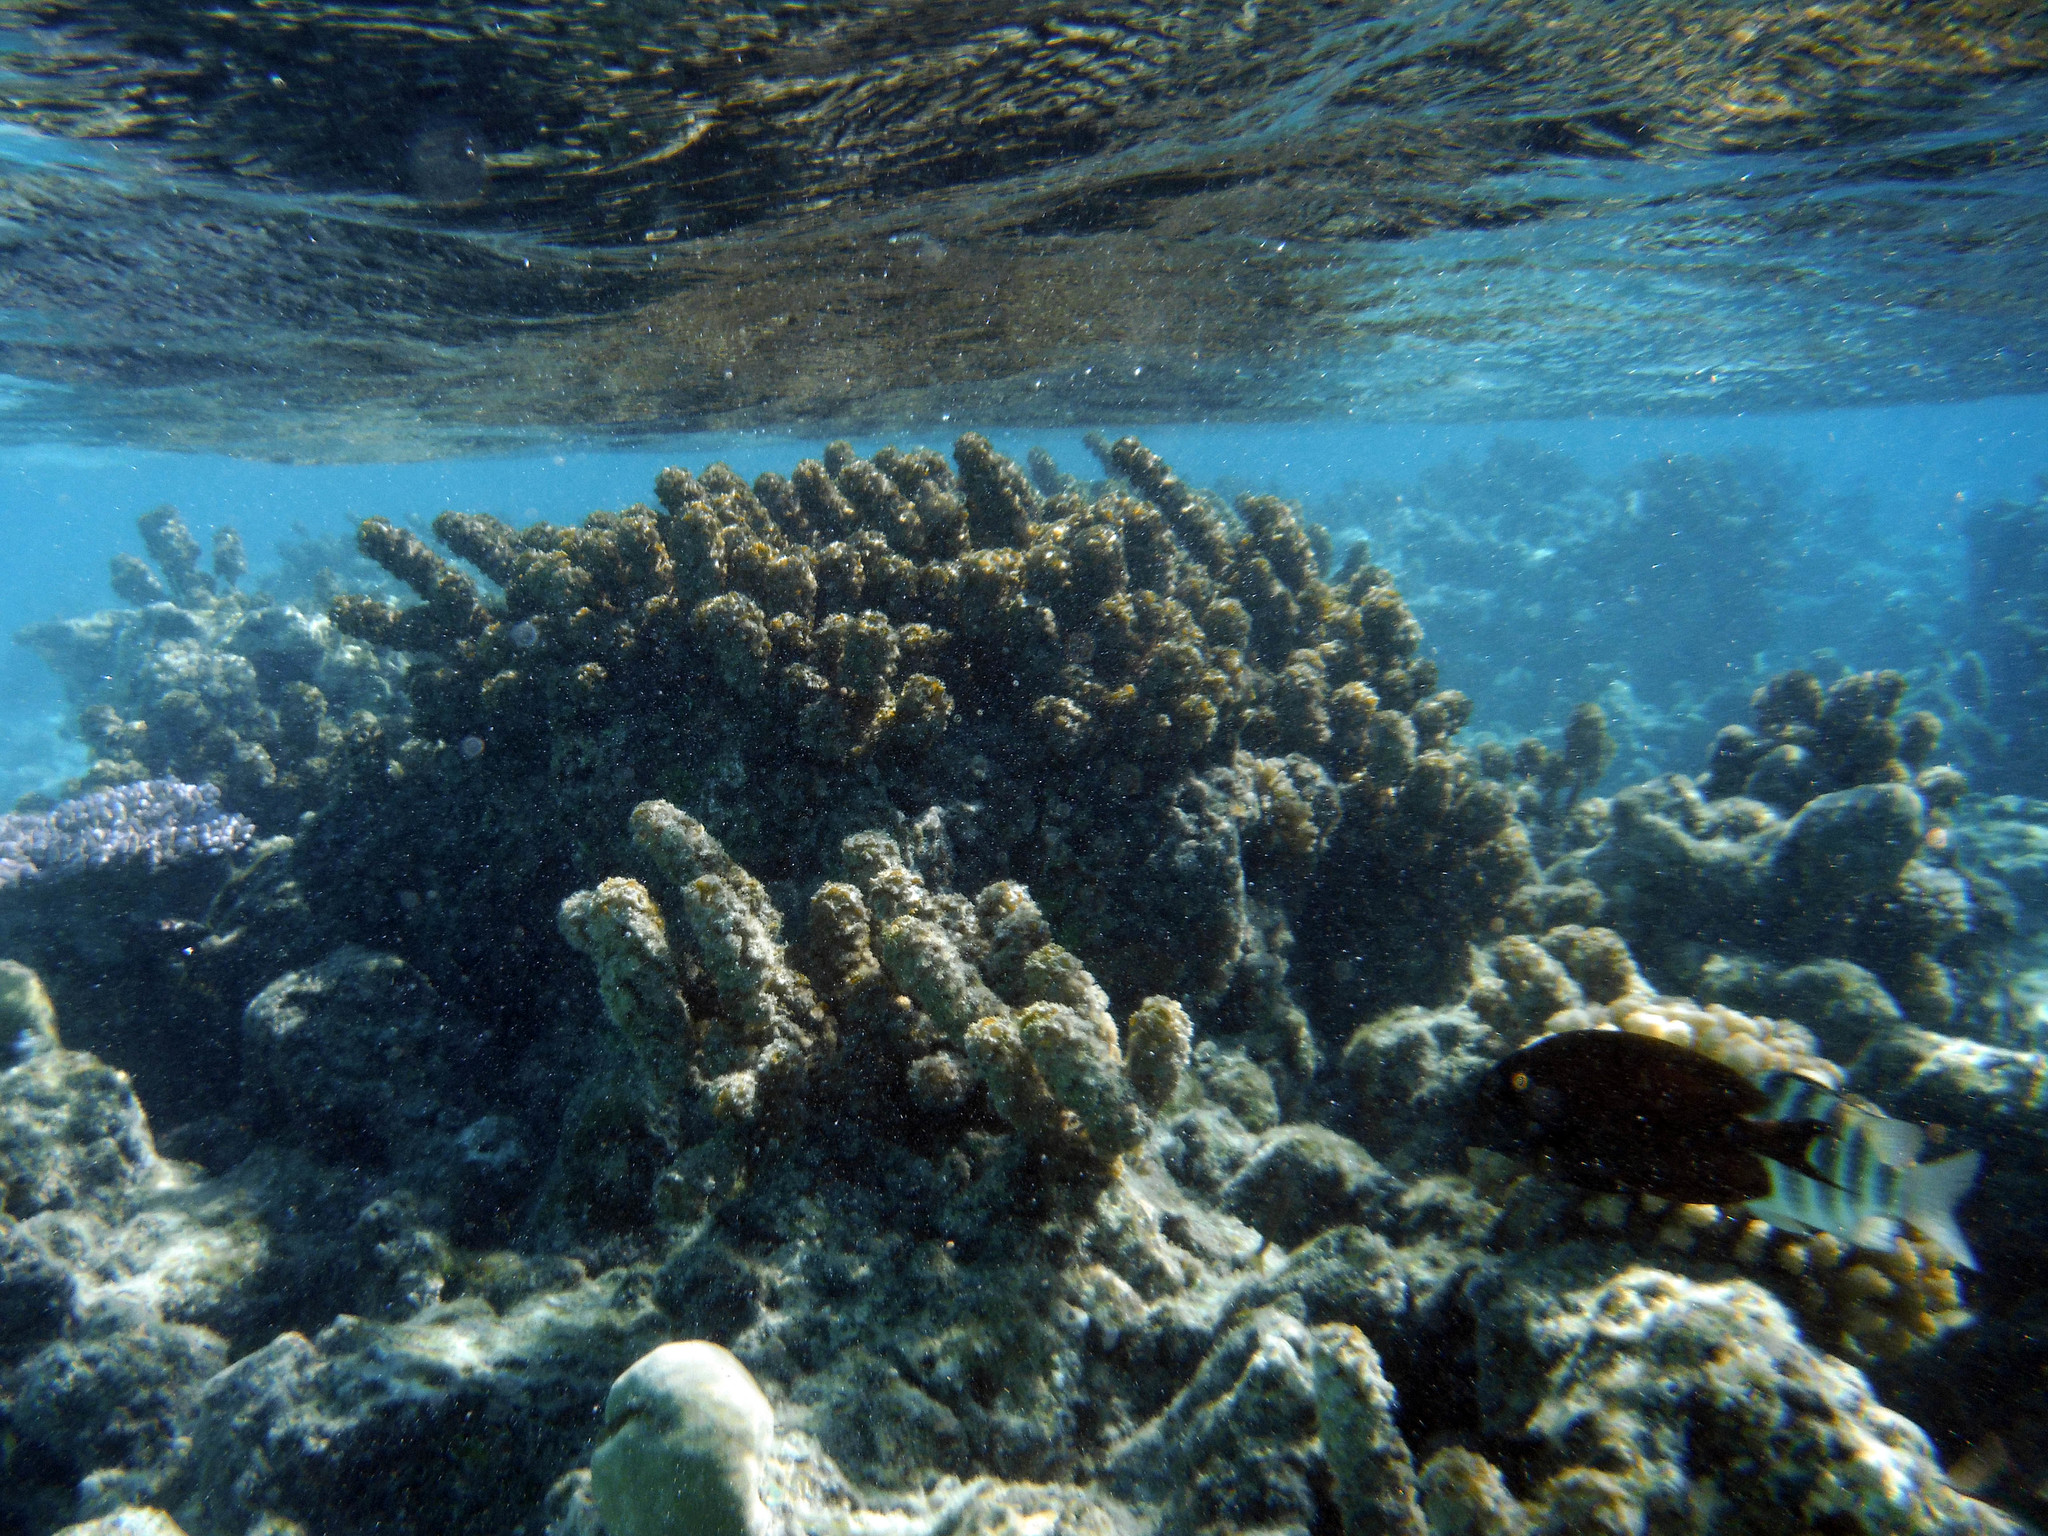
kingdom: Chromista
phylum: Ochrophyta
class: Phaeophyceae
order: Fucales
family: Sargassaceae
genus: Turbinaria
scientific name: Turbinaria ornata
